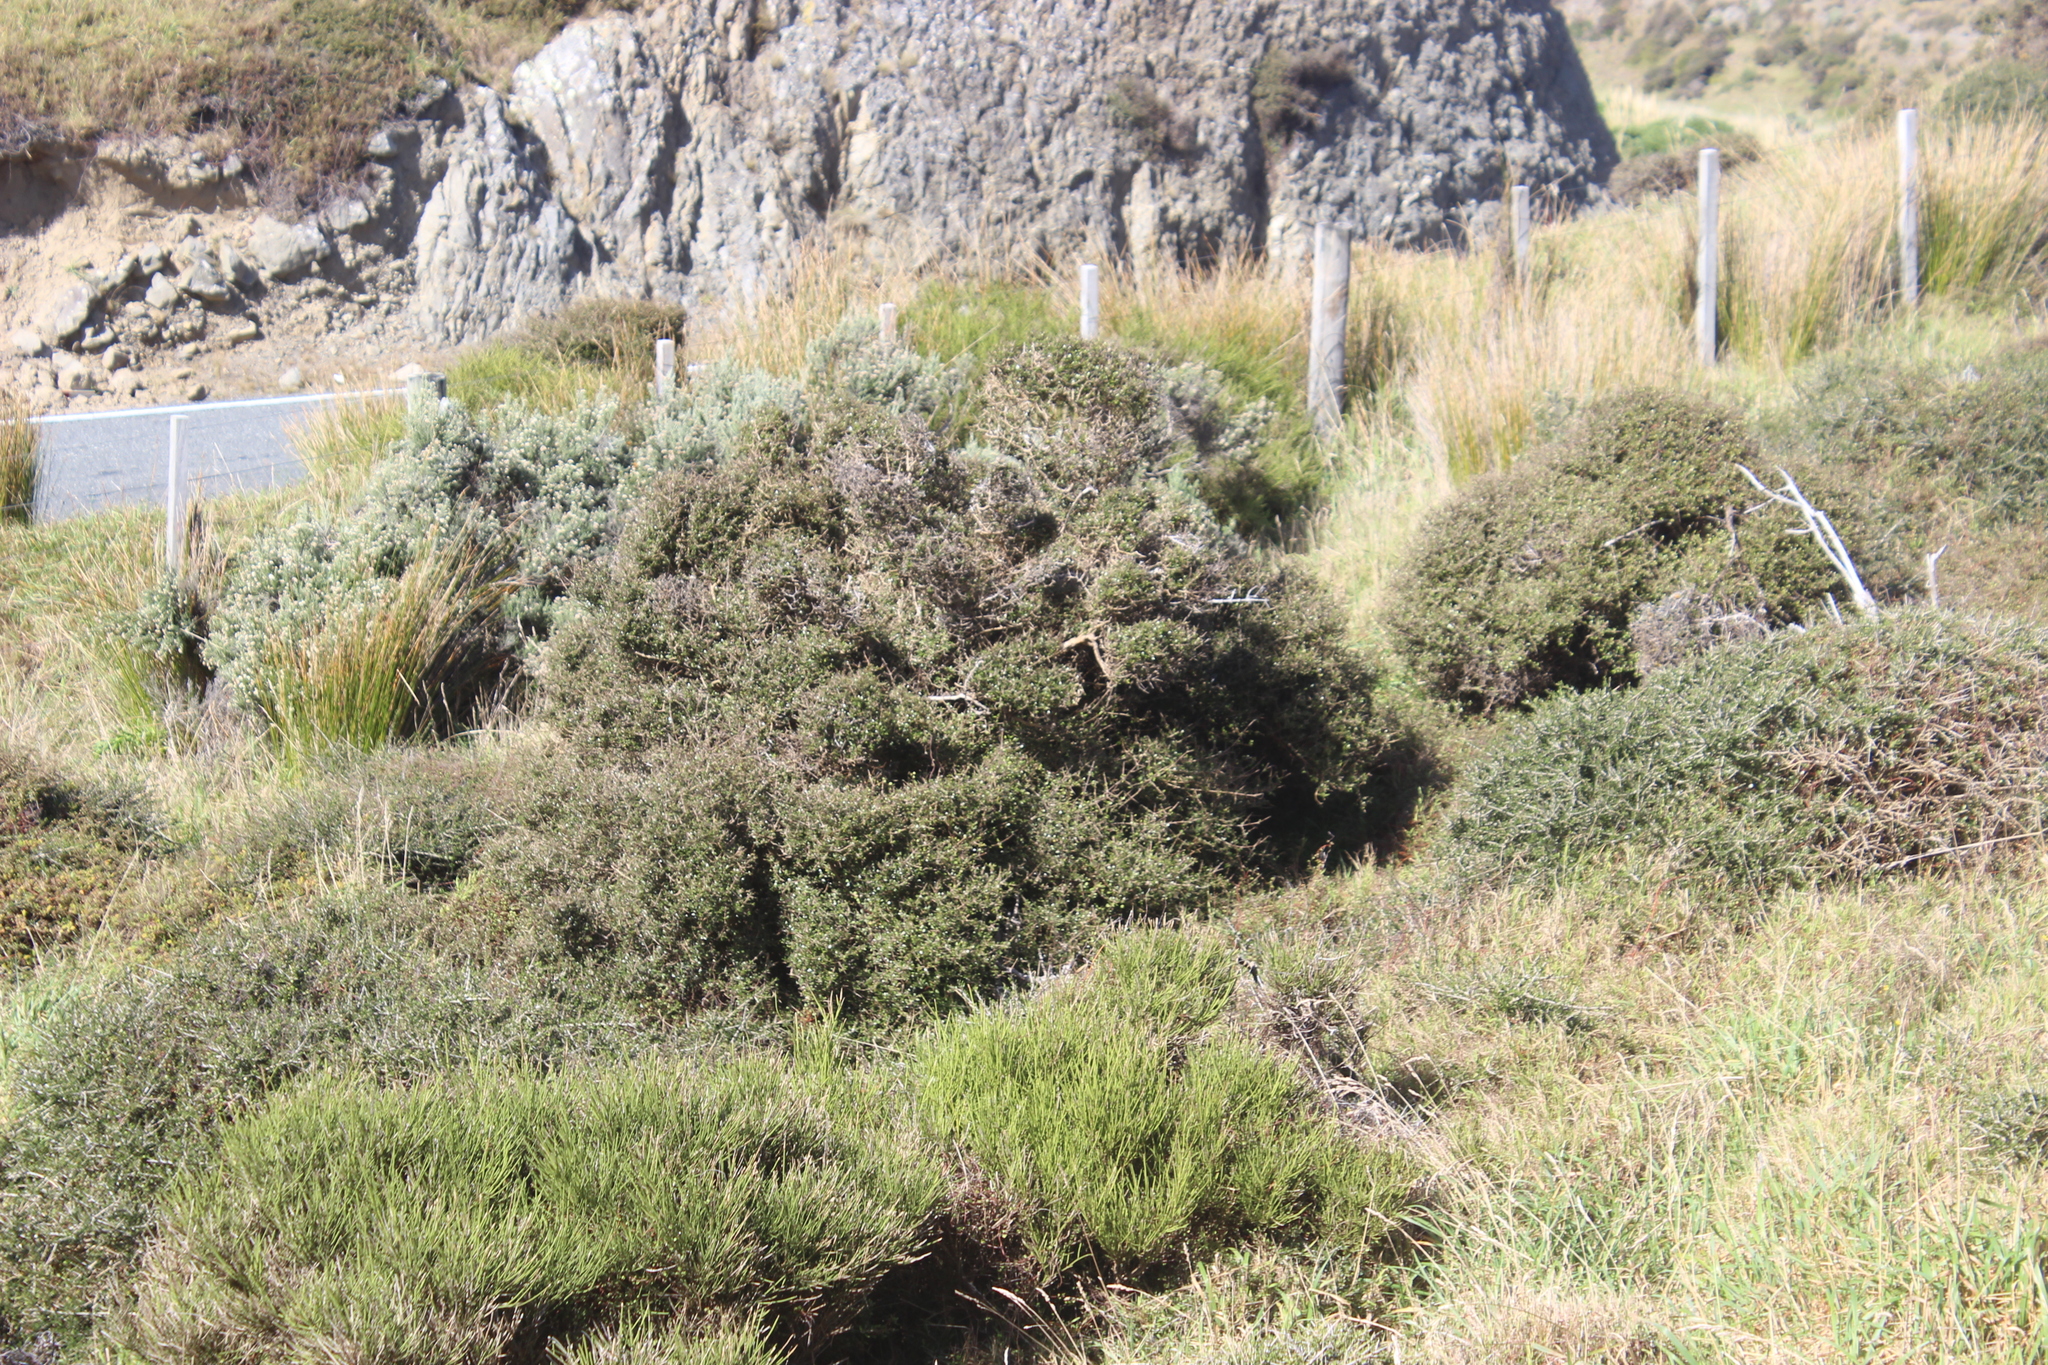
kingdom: Plantae
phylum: Tracheophyta
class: Magnoliopsida
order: Gentianales
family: Rubiaceae
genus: Coprosma
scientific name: Coprosma propinqua
